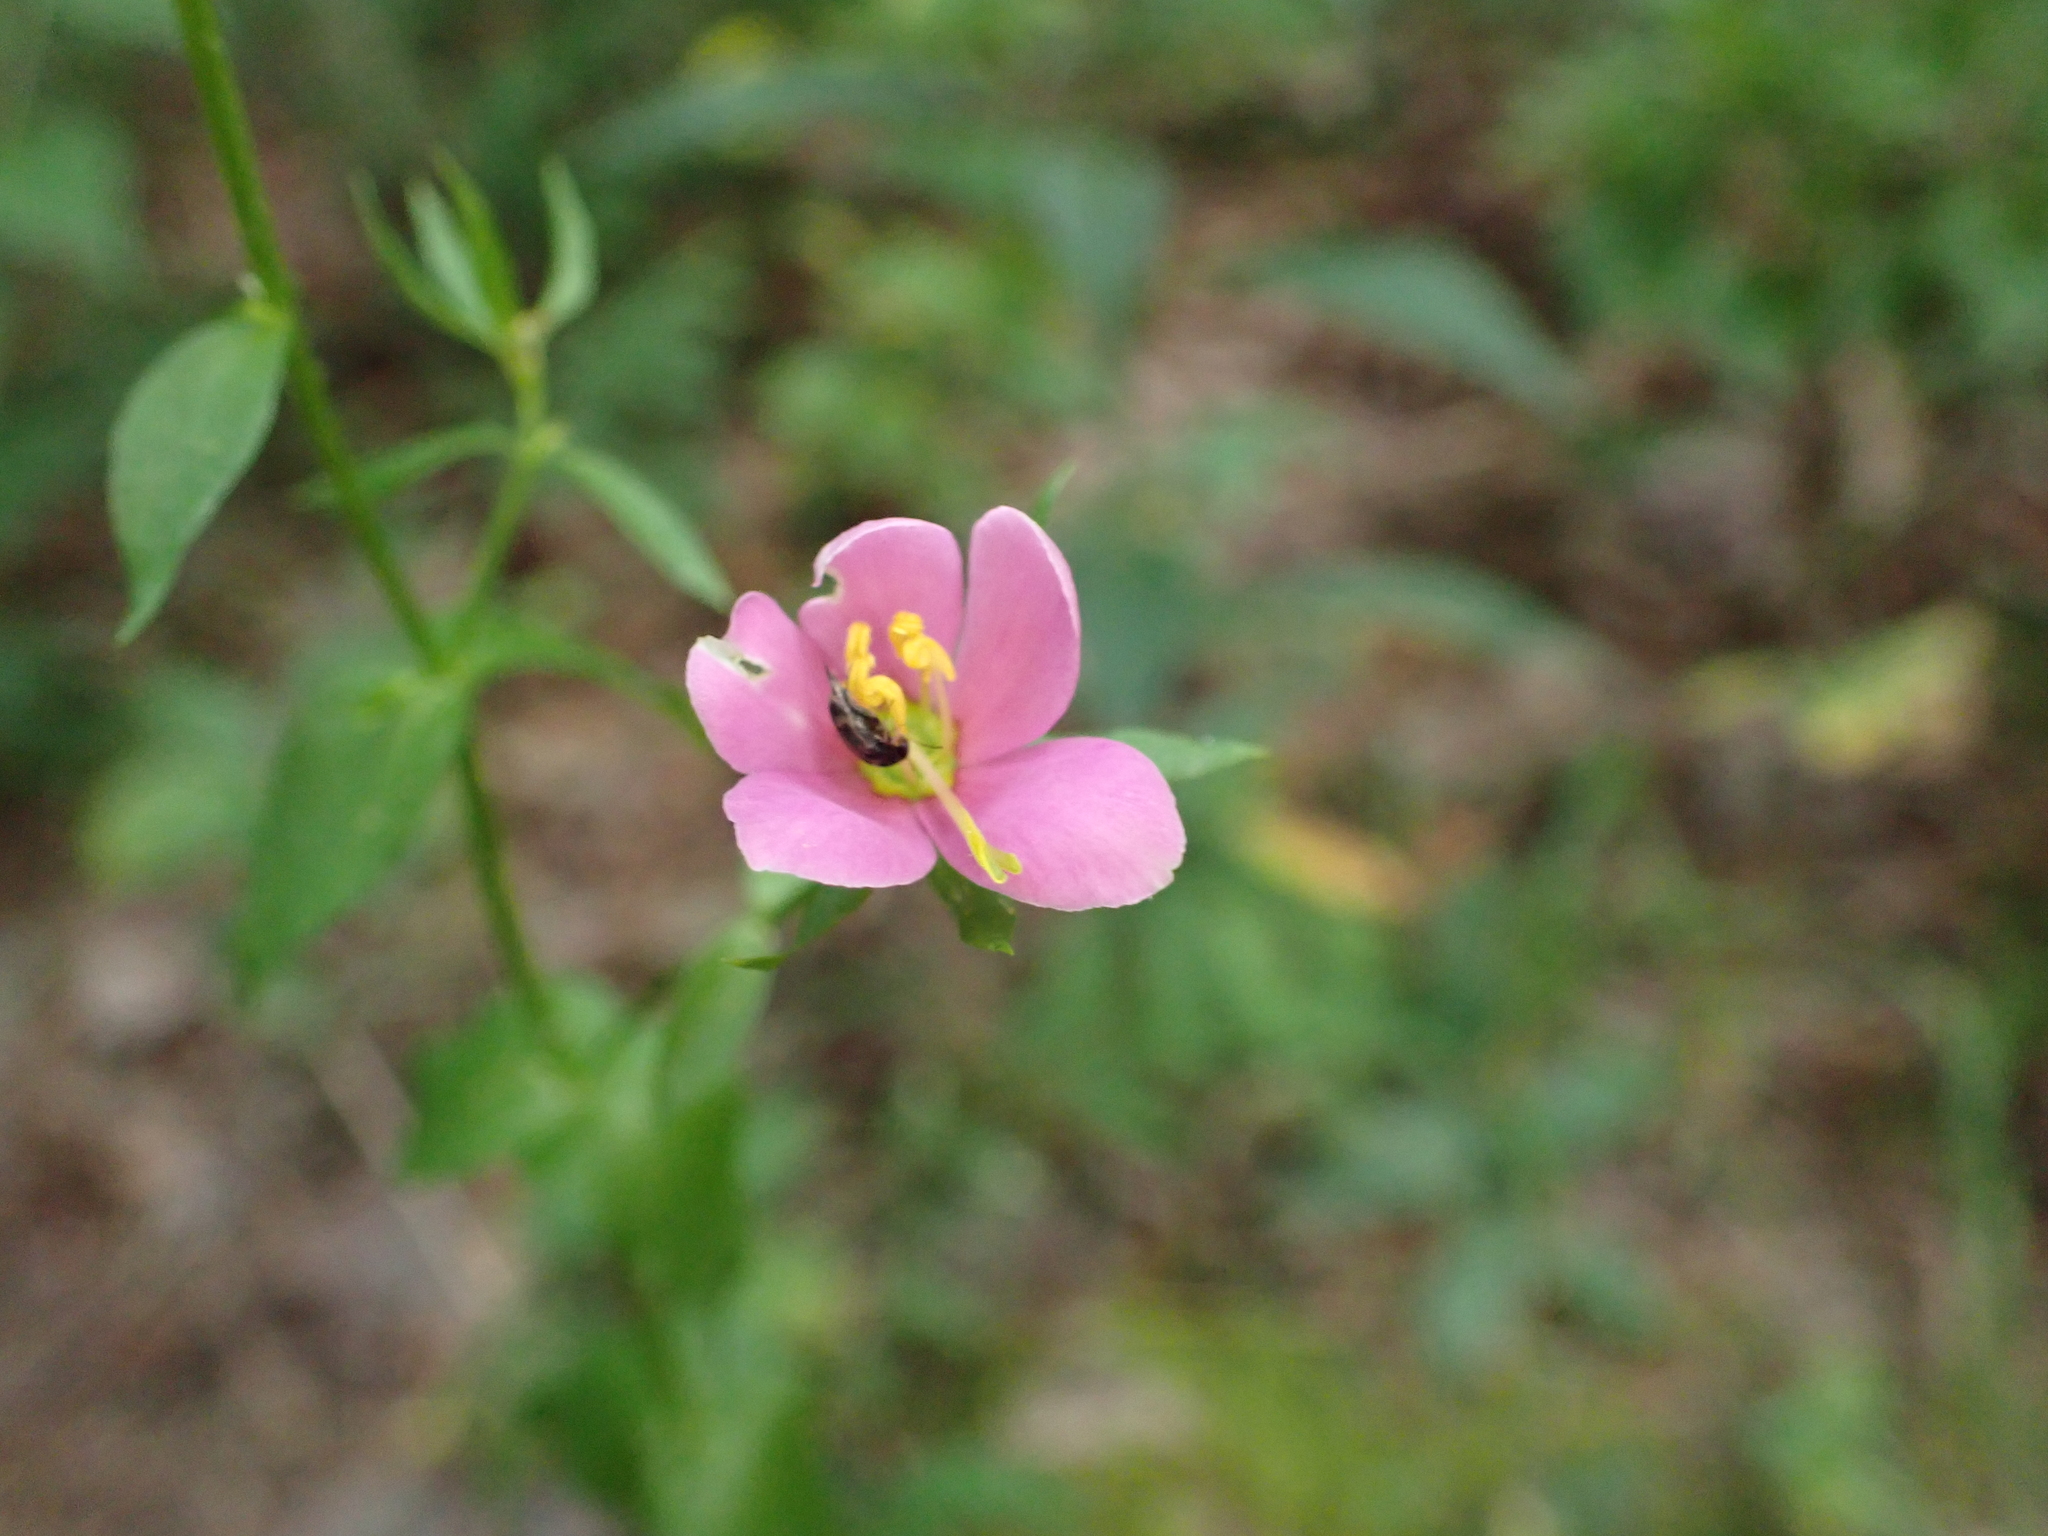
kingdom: Plantae
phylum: Tracheophyta
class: Magnoliopsida
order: Gentianales
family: Gentianaceae
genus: Sabatia
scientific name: Sabatia angularis
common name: Rose-pink
